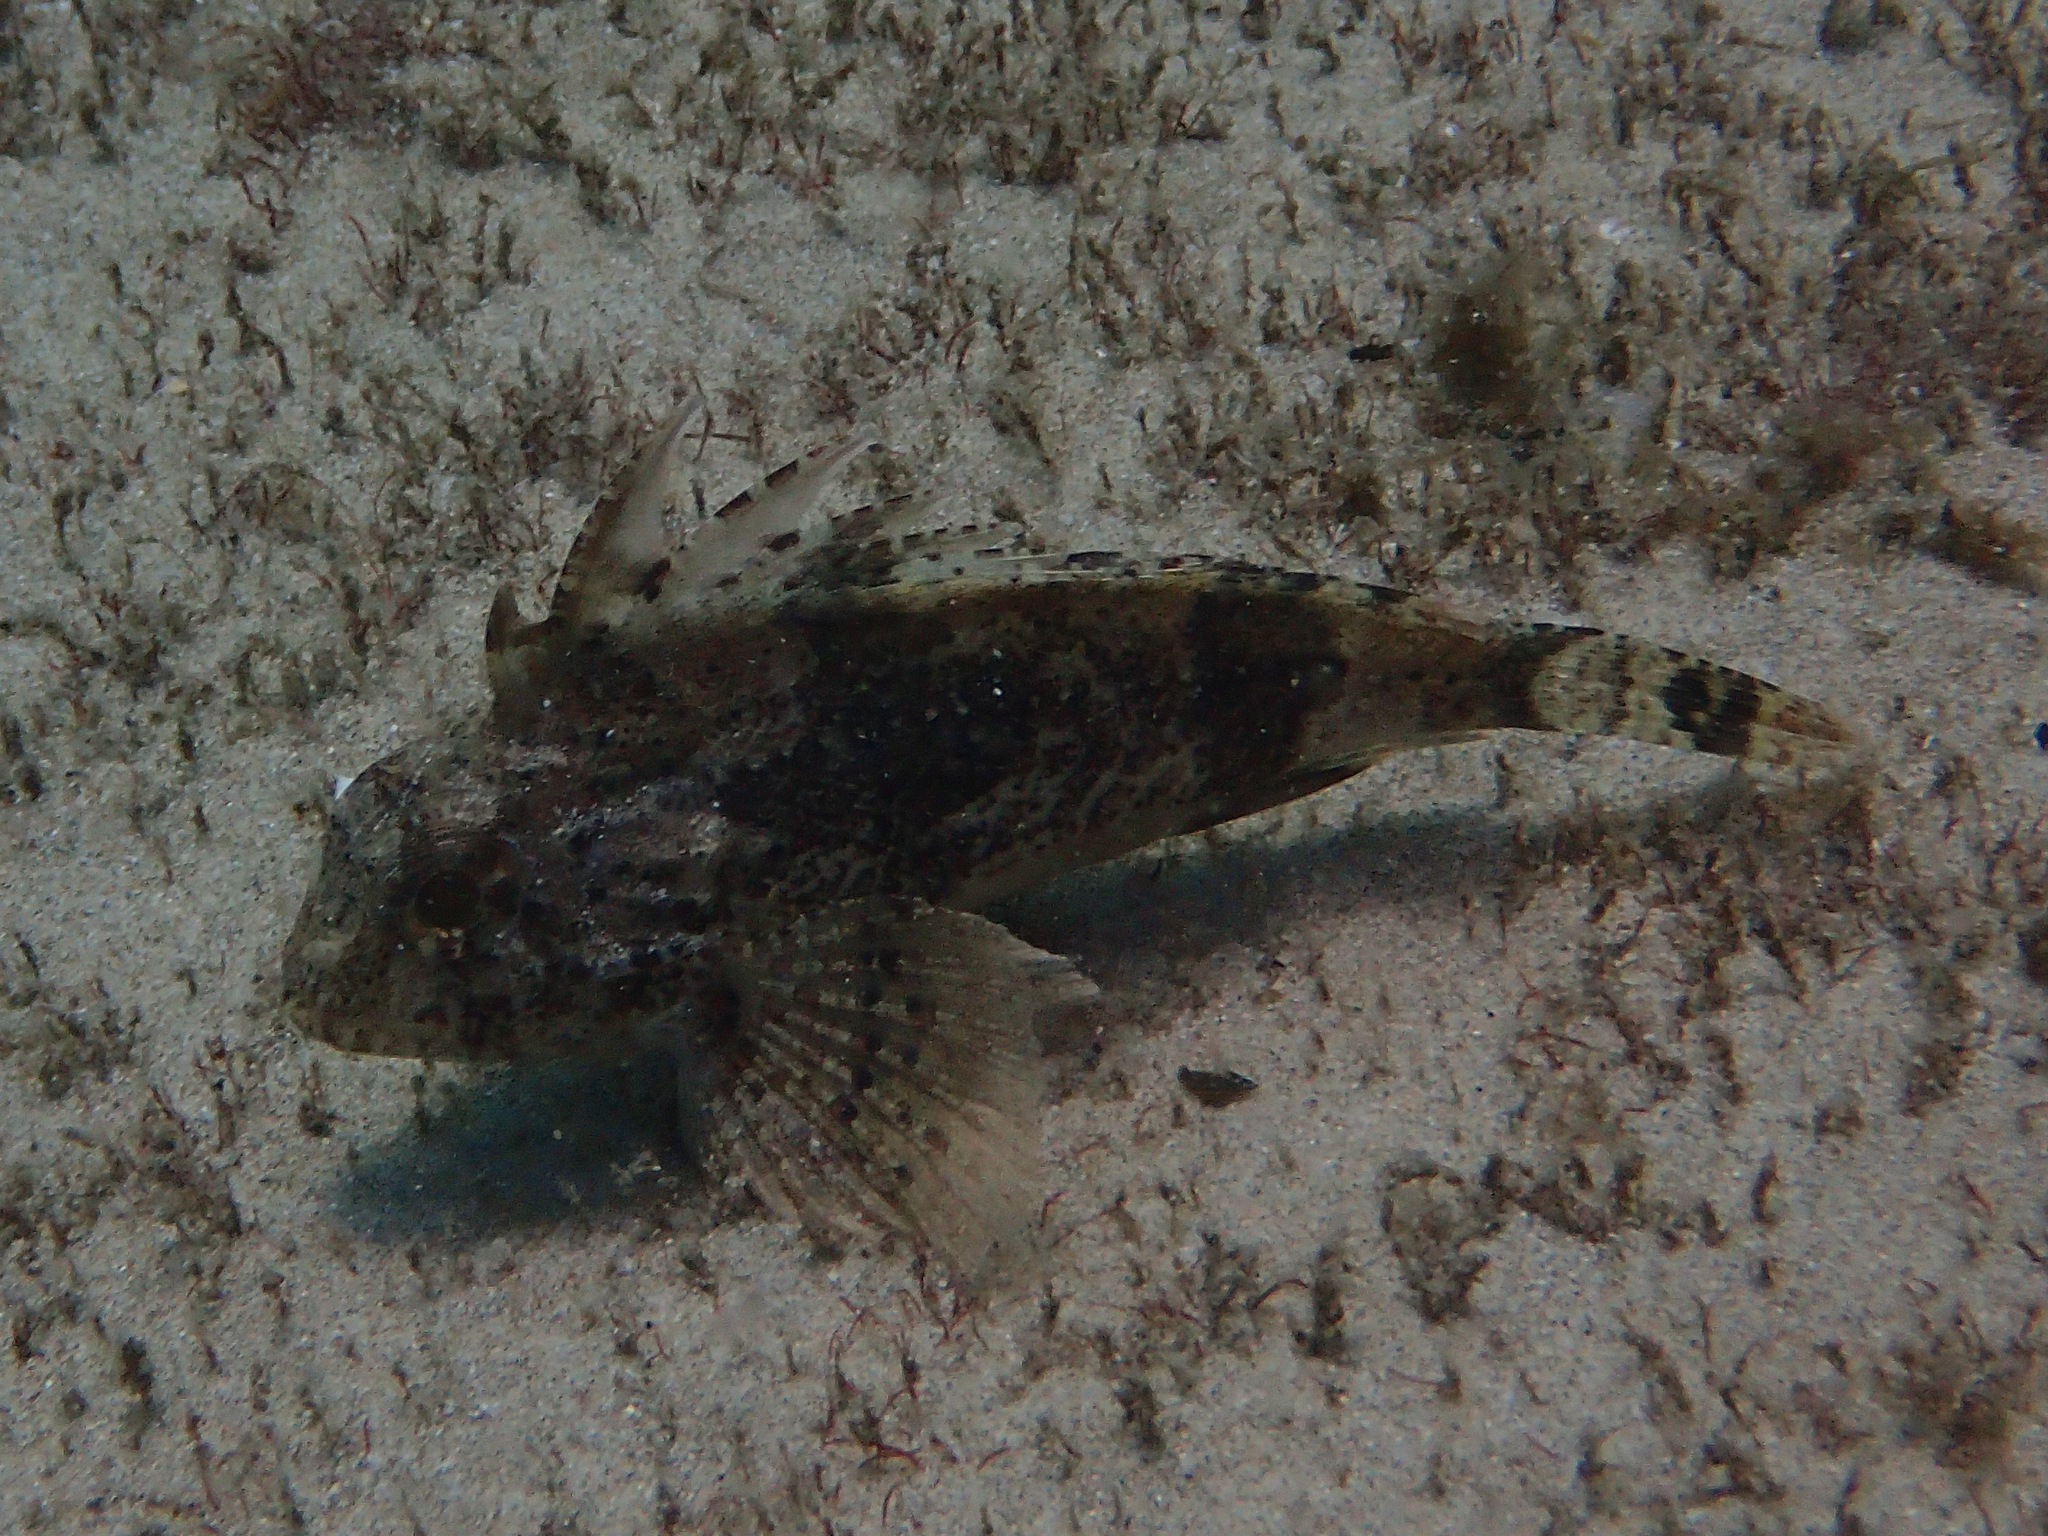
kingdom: Animalia
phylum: Chordata
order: Scorpaeniformes
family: Tetrarogidae
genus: Centropogon
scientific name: Centropogon australis
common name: Fortescue
